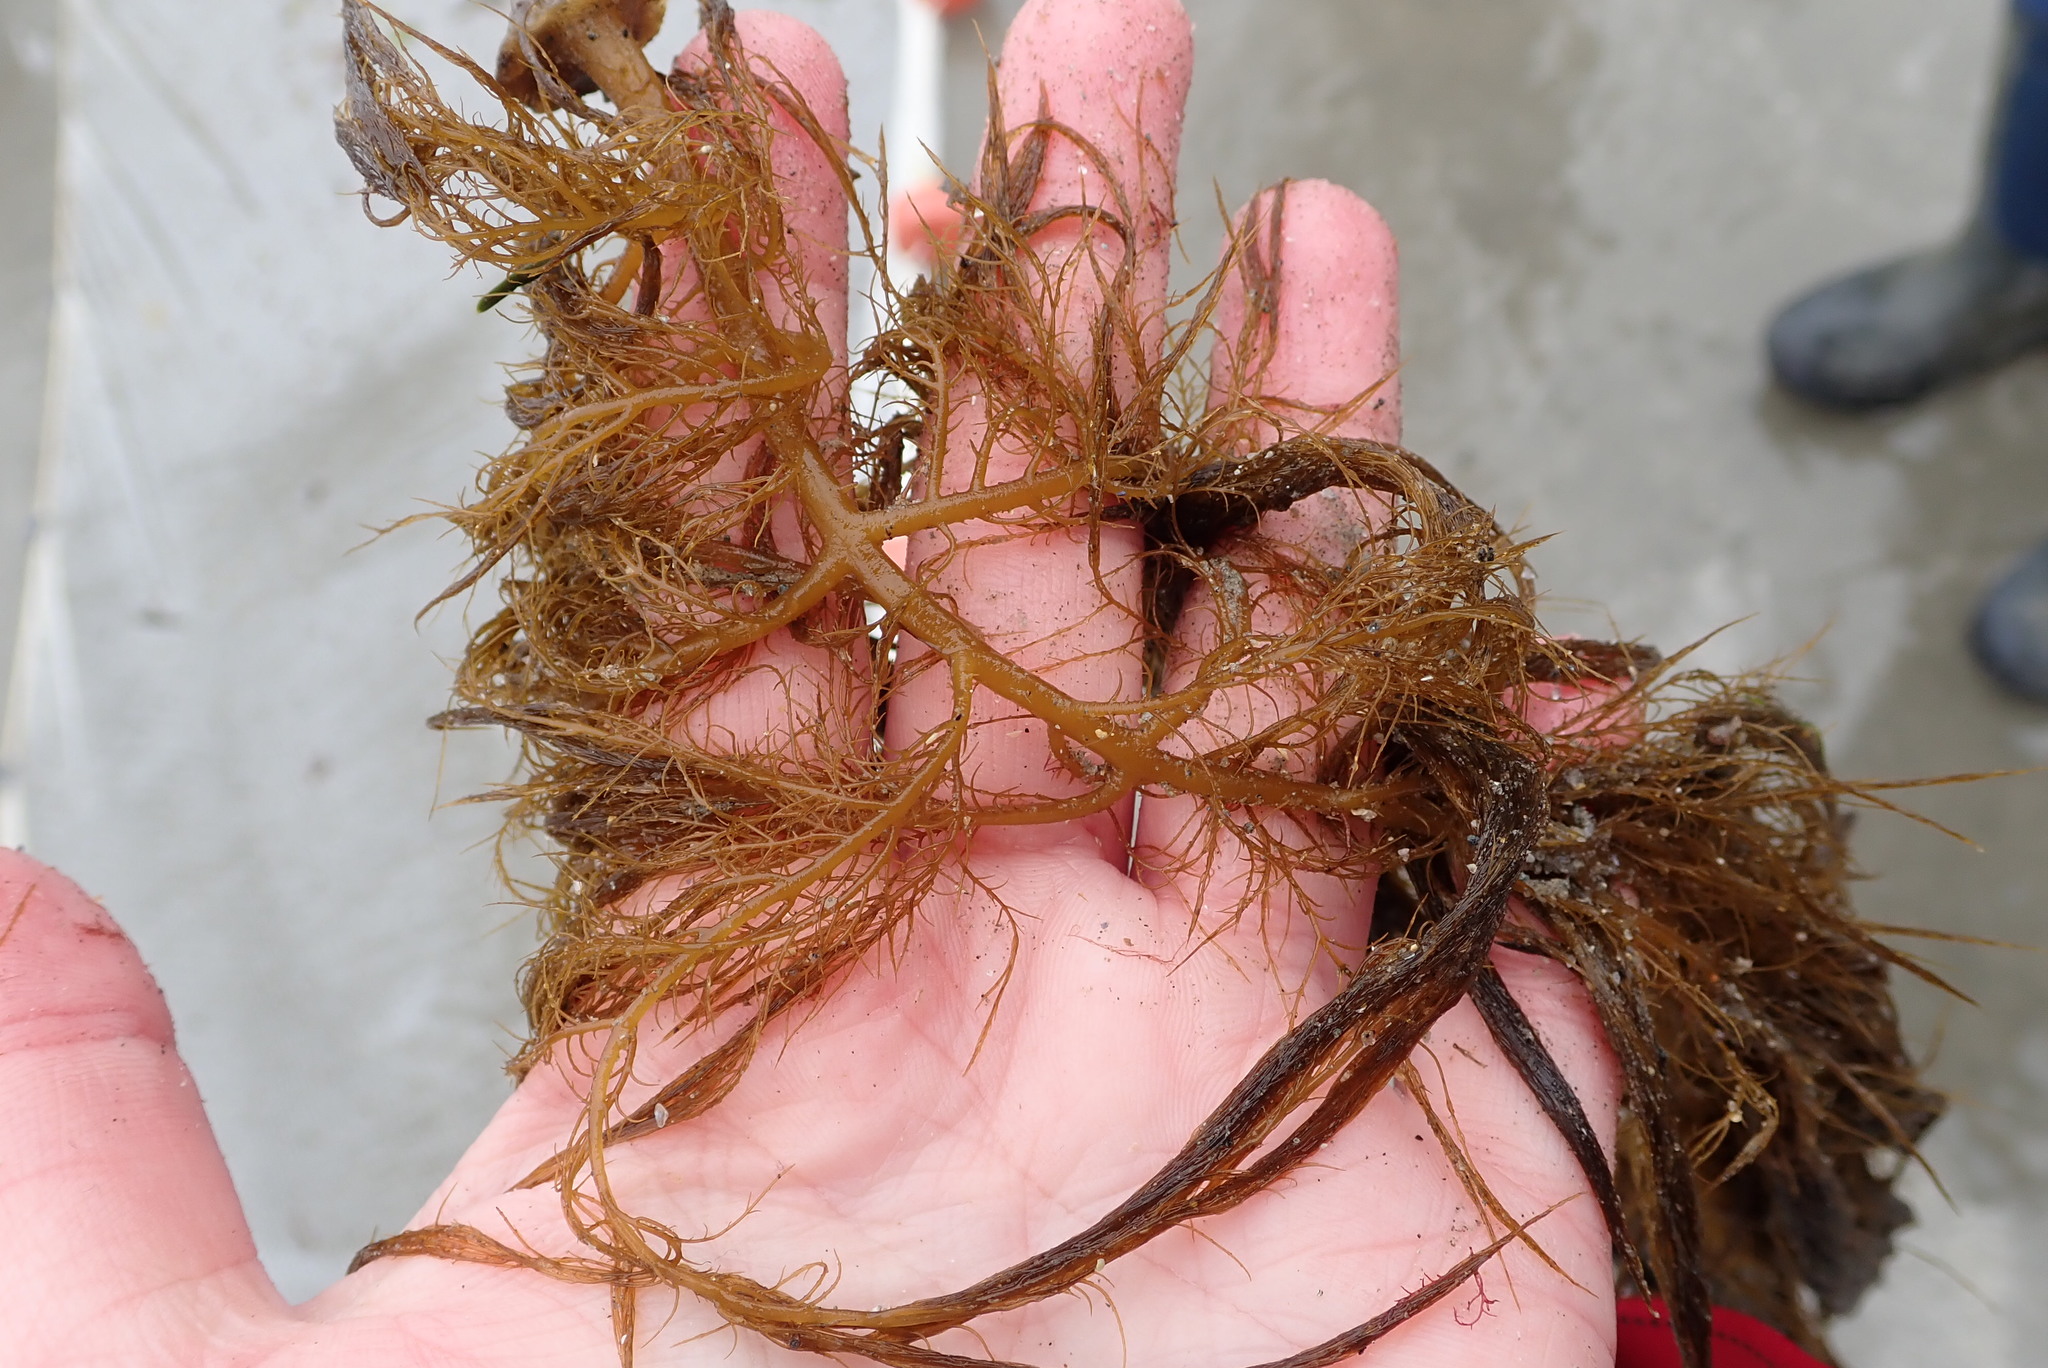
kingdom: Chromista
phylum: Ochrophyta
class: Phaeophyceae
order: Desmarestiales
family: Desmarestiaceae
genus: Desmarestia
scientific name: Desmarestia viridis
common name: Stringy acid kelp
